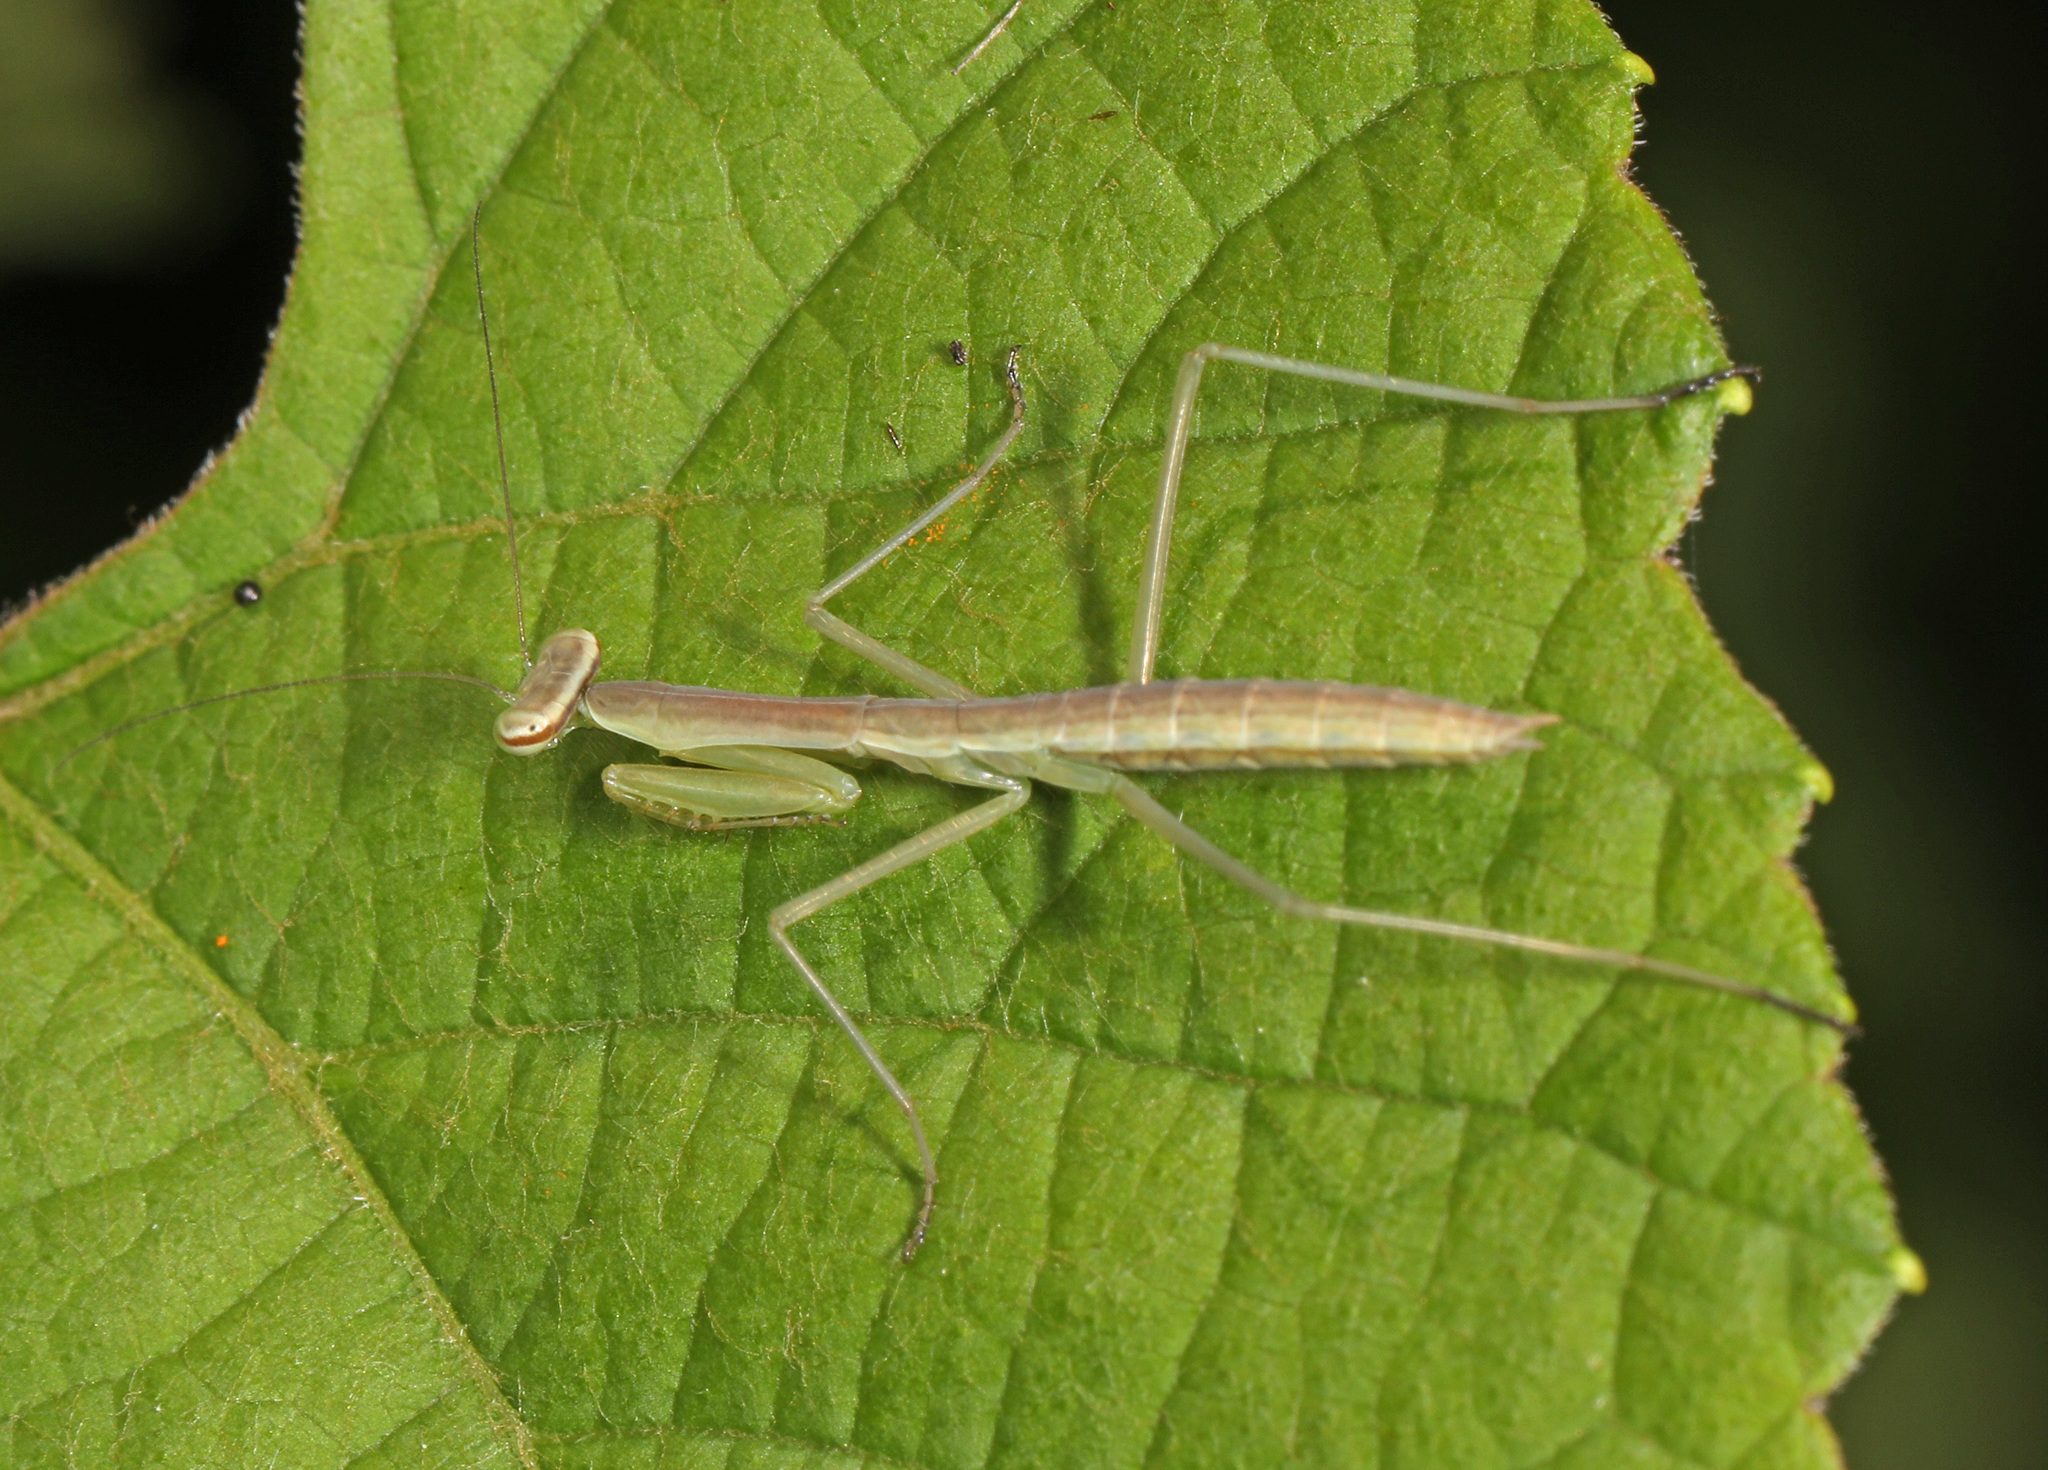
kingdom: Animalia
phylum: Arthropoda
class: Insecta
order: Mantodea
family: Mantidae
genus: Tenodera
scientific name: Tenodera sinensis
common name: Chinese mantis
